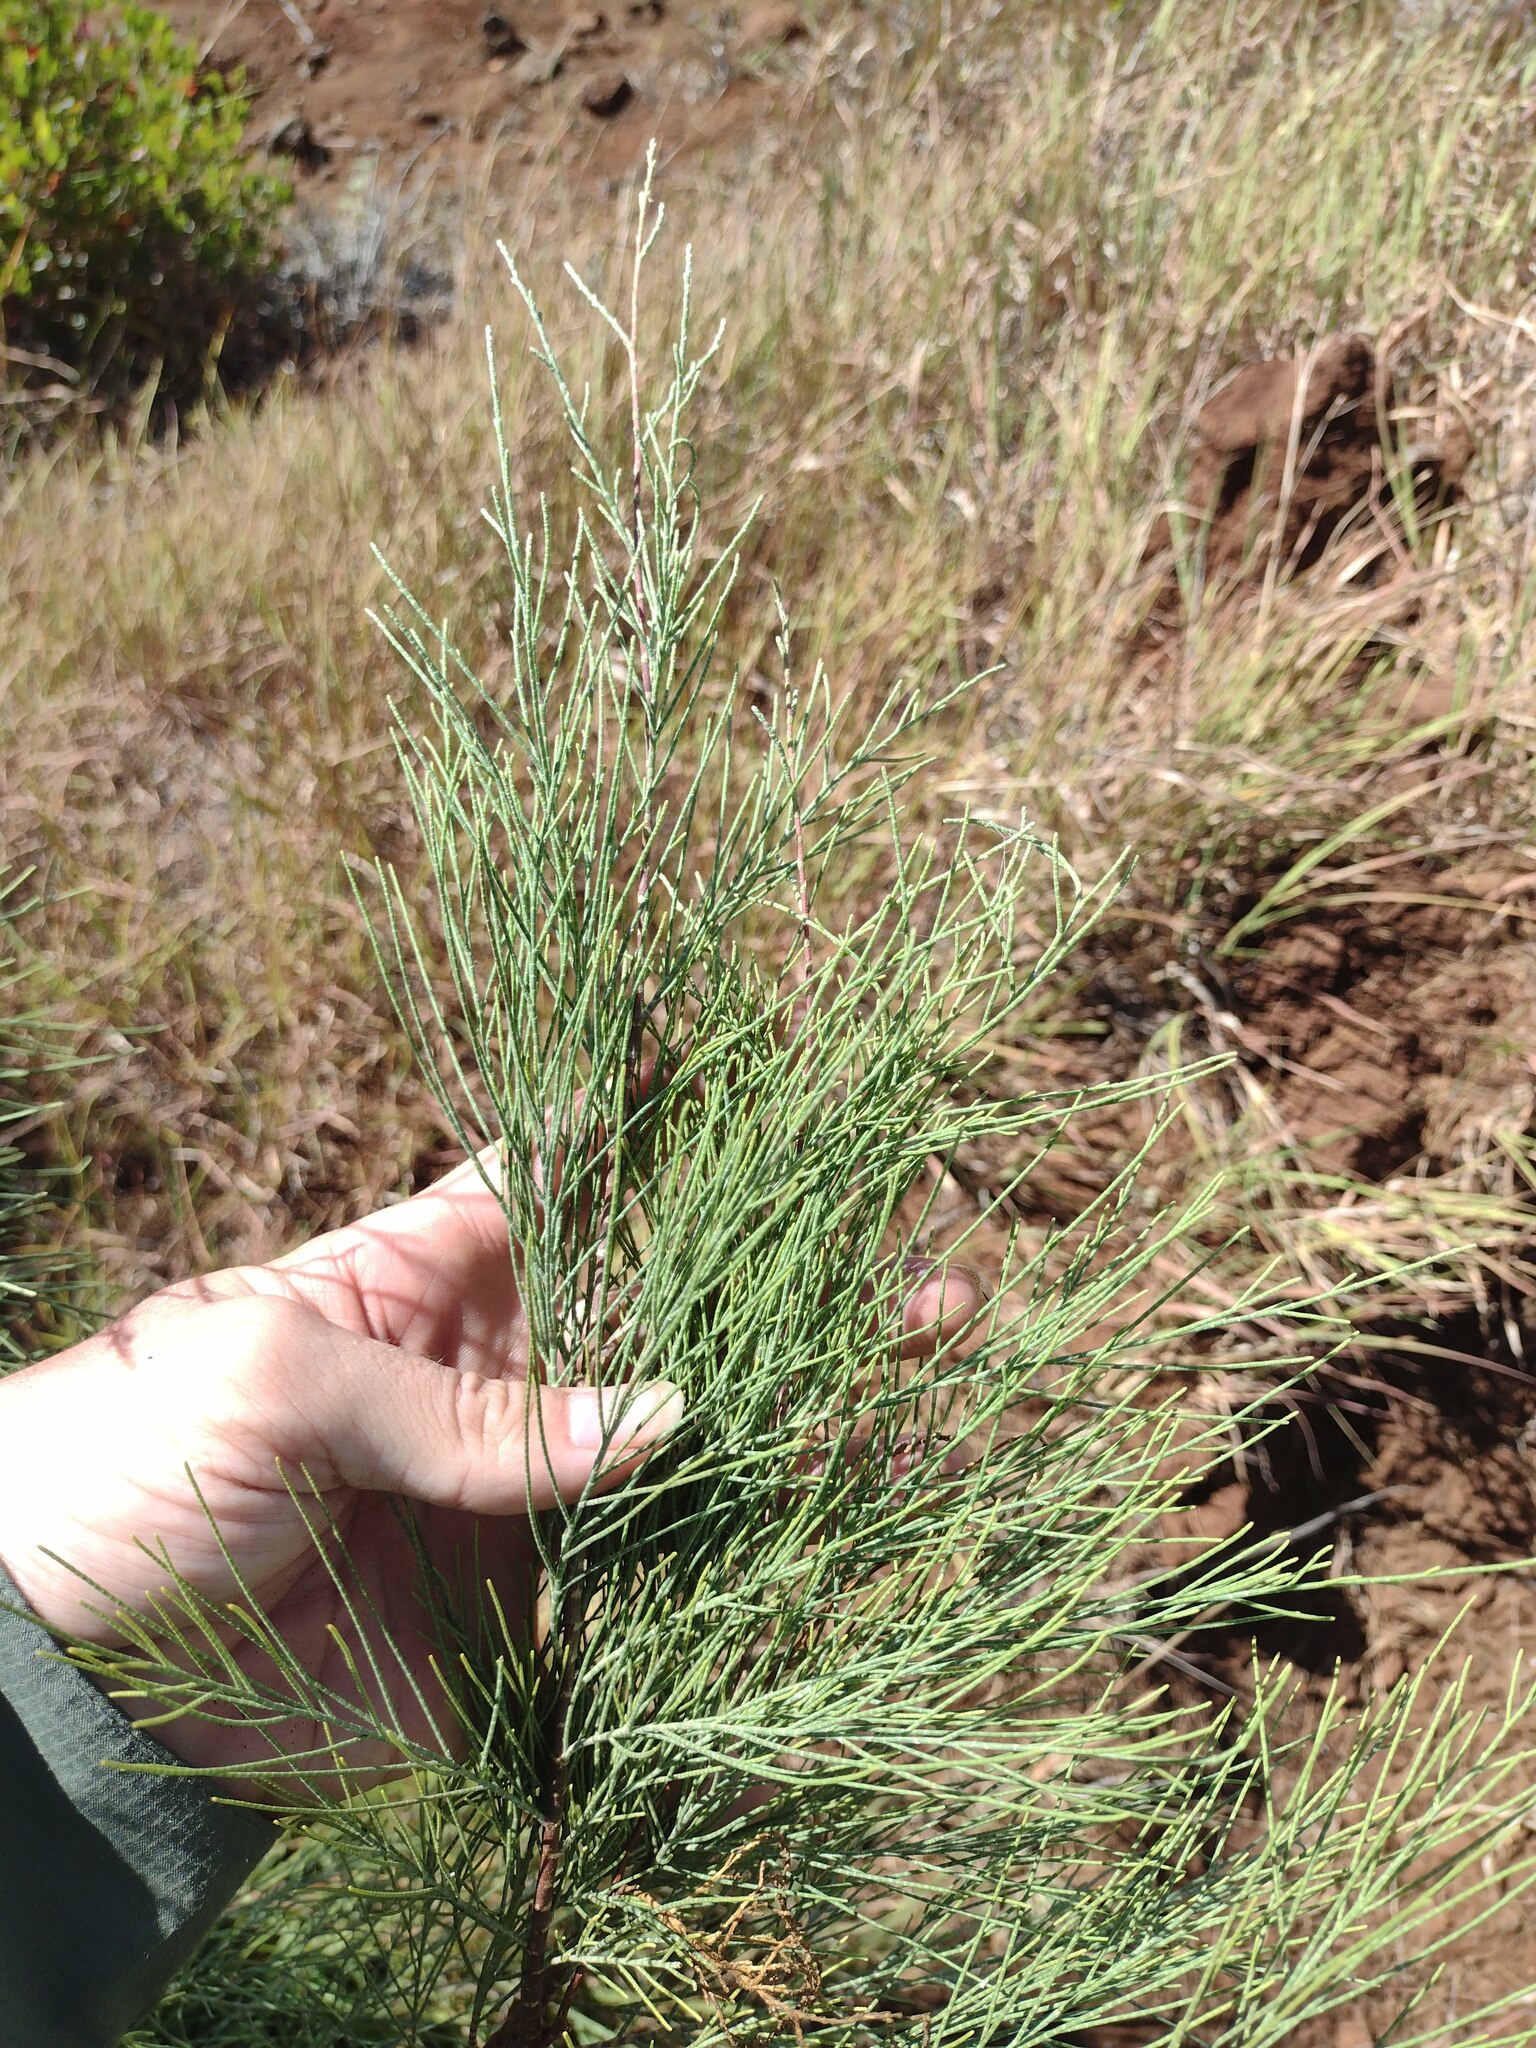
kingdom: Plantae
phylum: Tracheophyta
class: Magnoliopsida
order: Caryophyllales
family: Tamaricaceae
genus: Tamarix
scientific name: Tamarix aphylla
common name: Athel tamarisk
